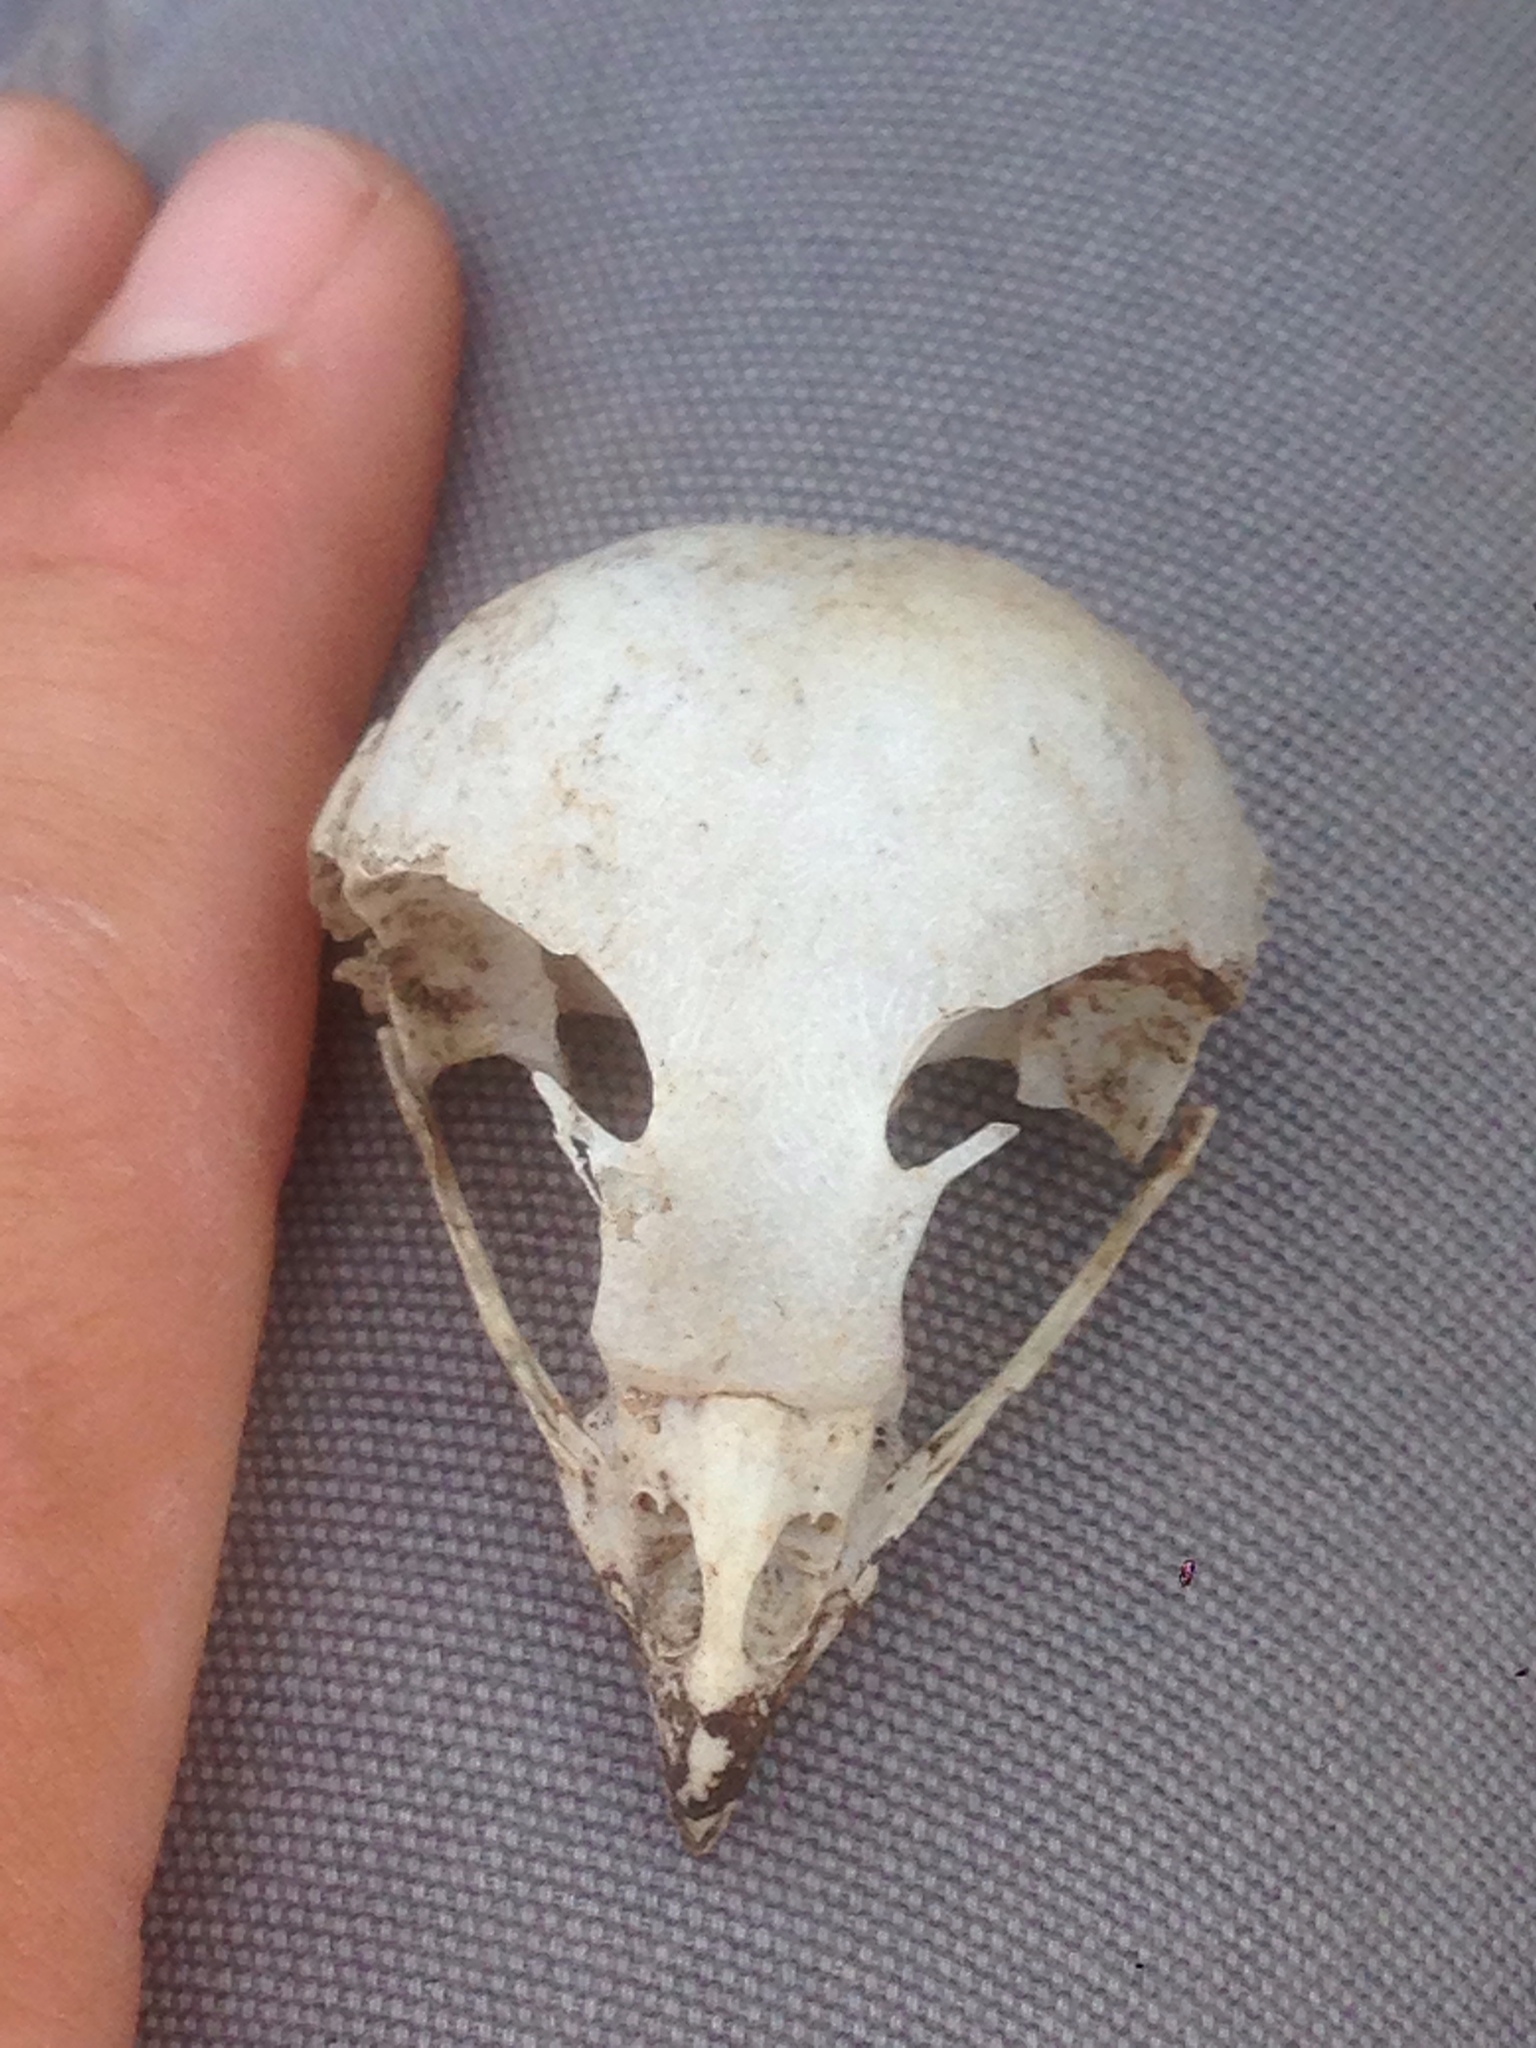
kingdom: Animalia
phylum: Chordata
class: Aves
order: Strigiformes
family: Strigidae
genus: Athene
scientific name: Athene cunicularia
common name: Burrowing owl
